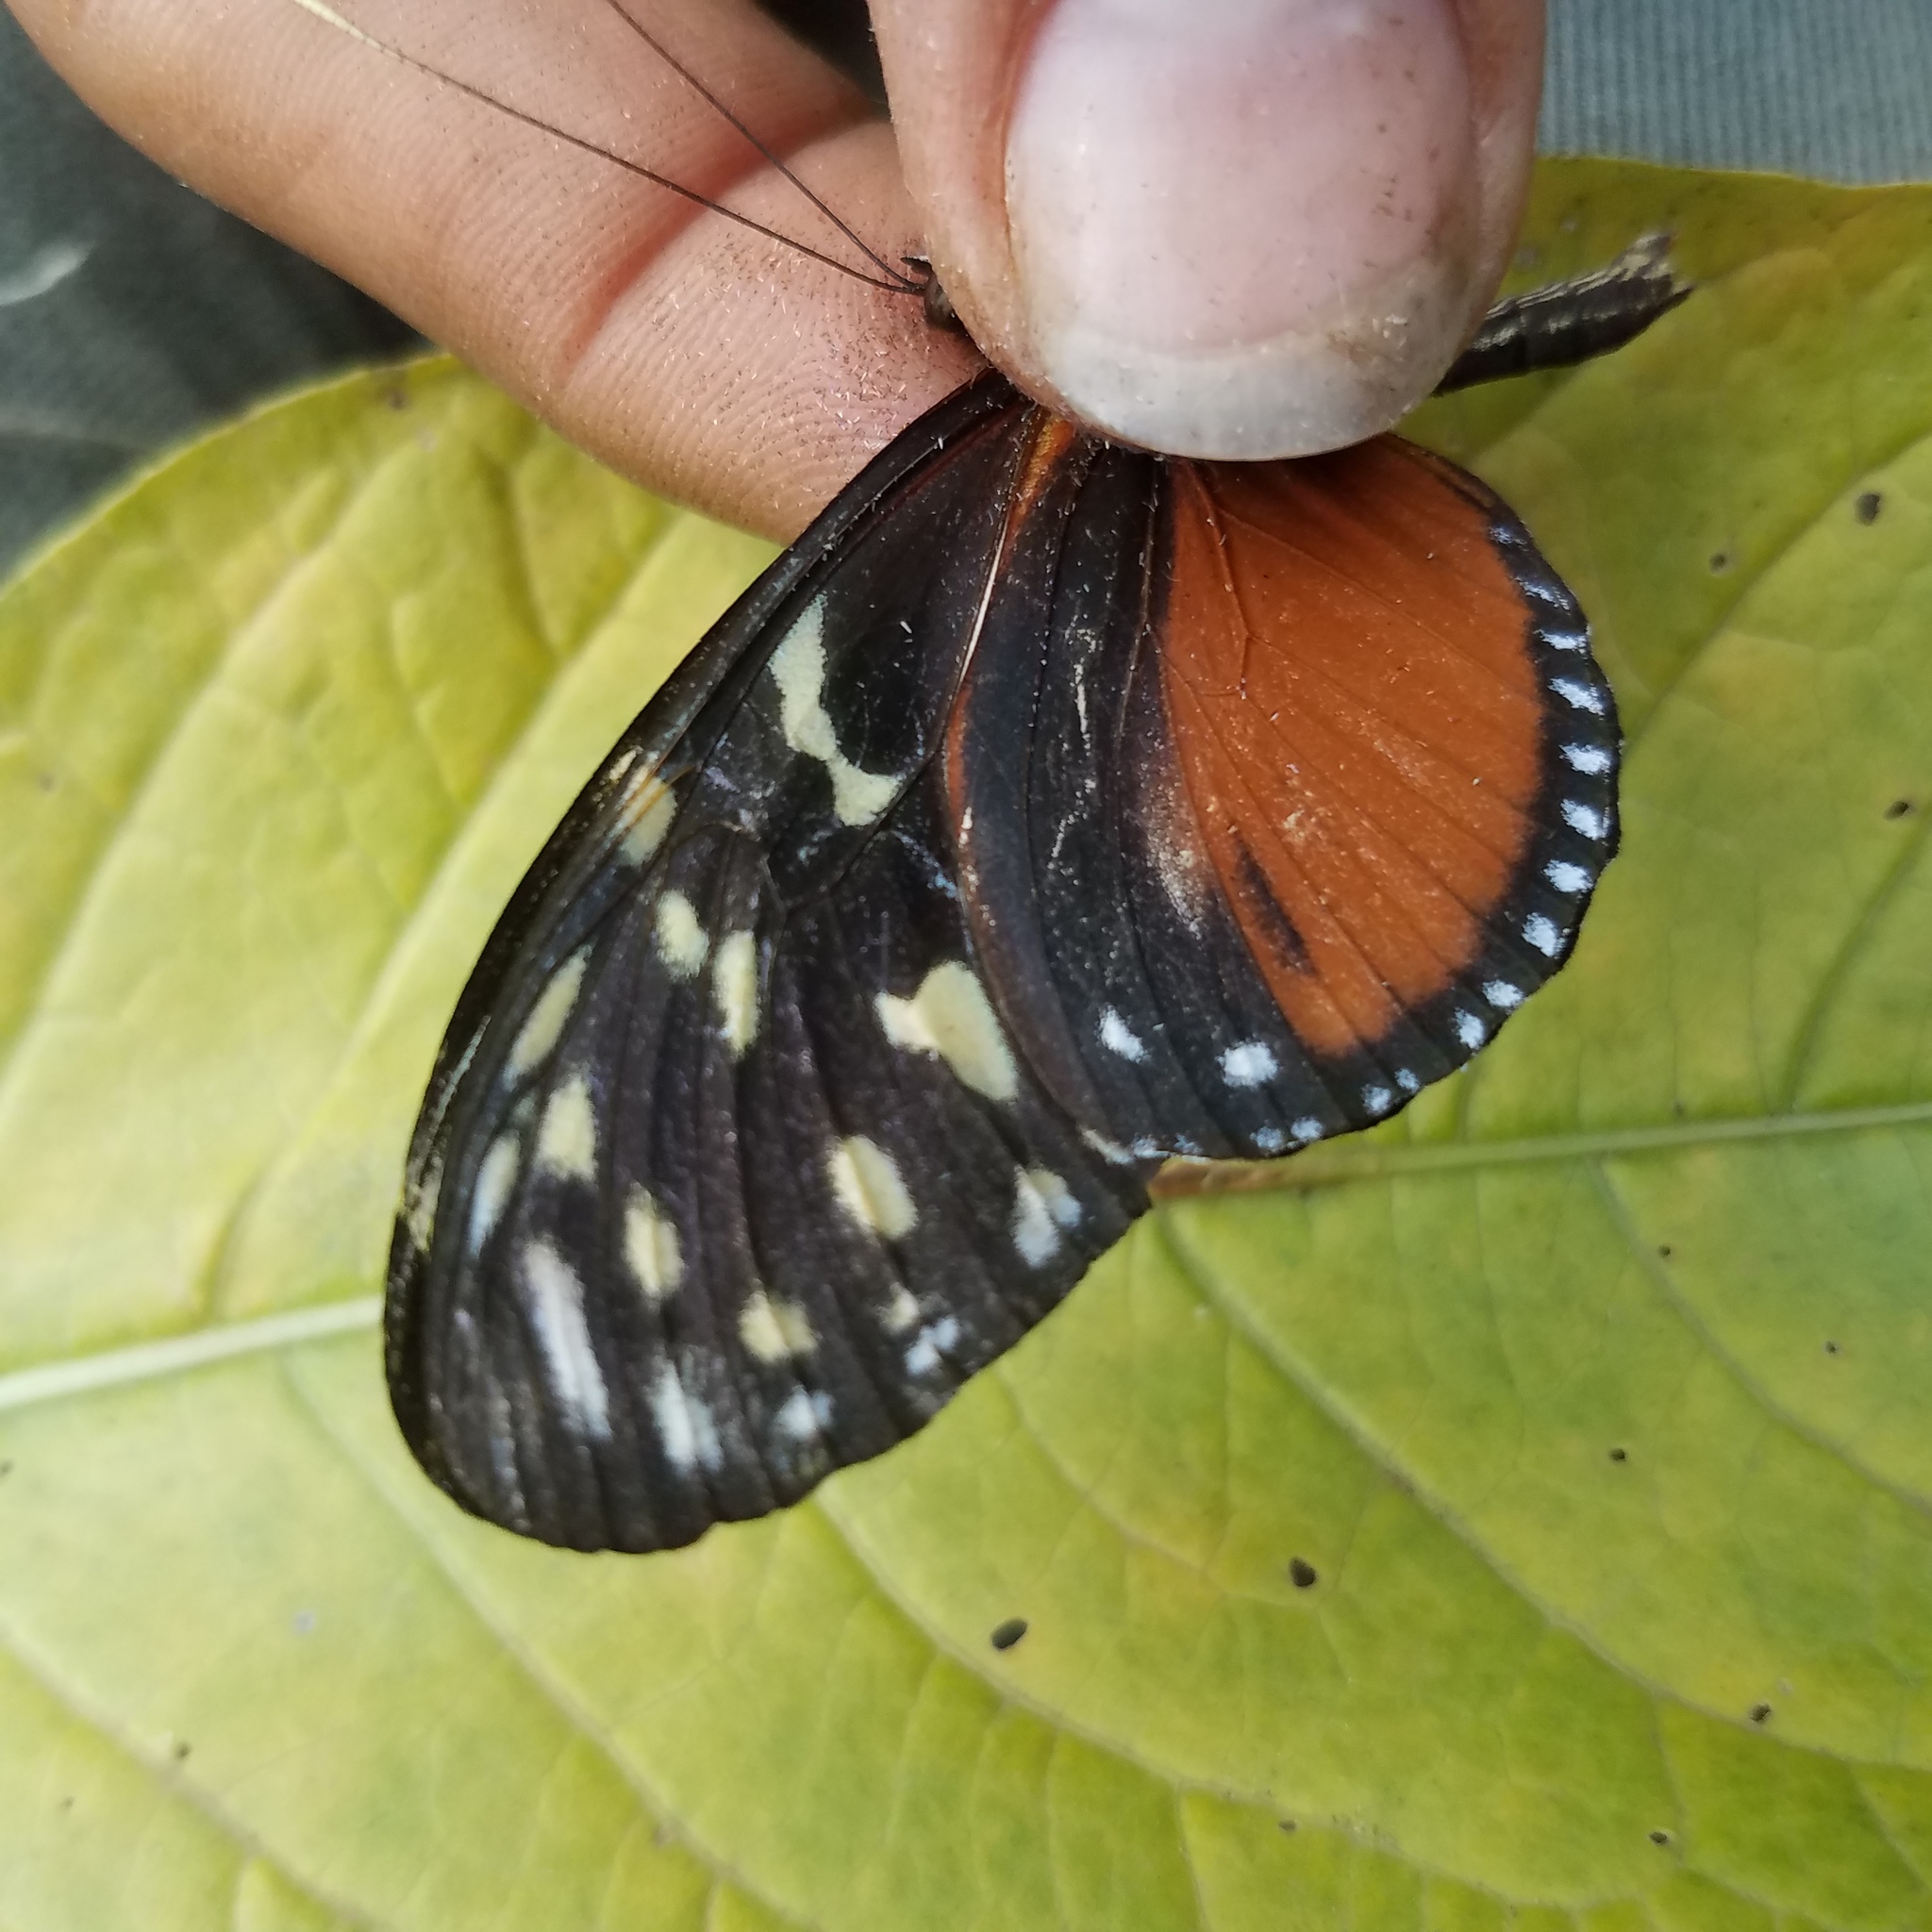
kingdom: Animalia
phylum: Arthropoda
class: Insecta
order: Lepidoptera
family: Nymphalidae
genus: Heliconius
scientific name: Heliconius hecale
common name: Tiger longwing
